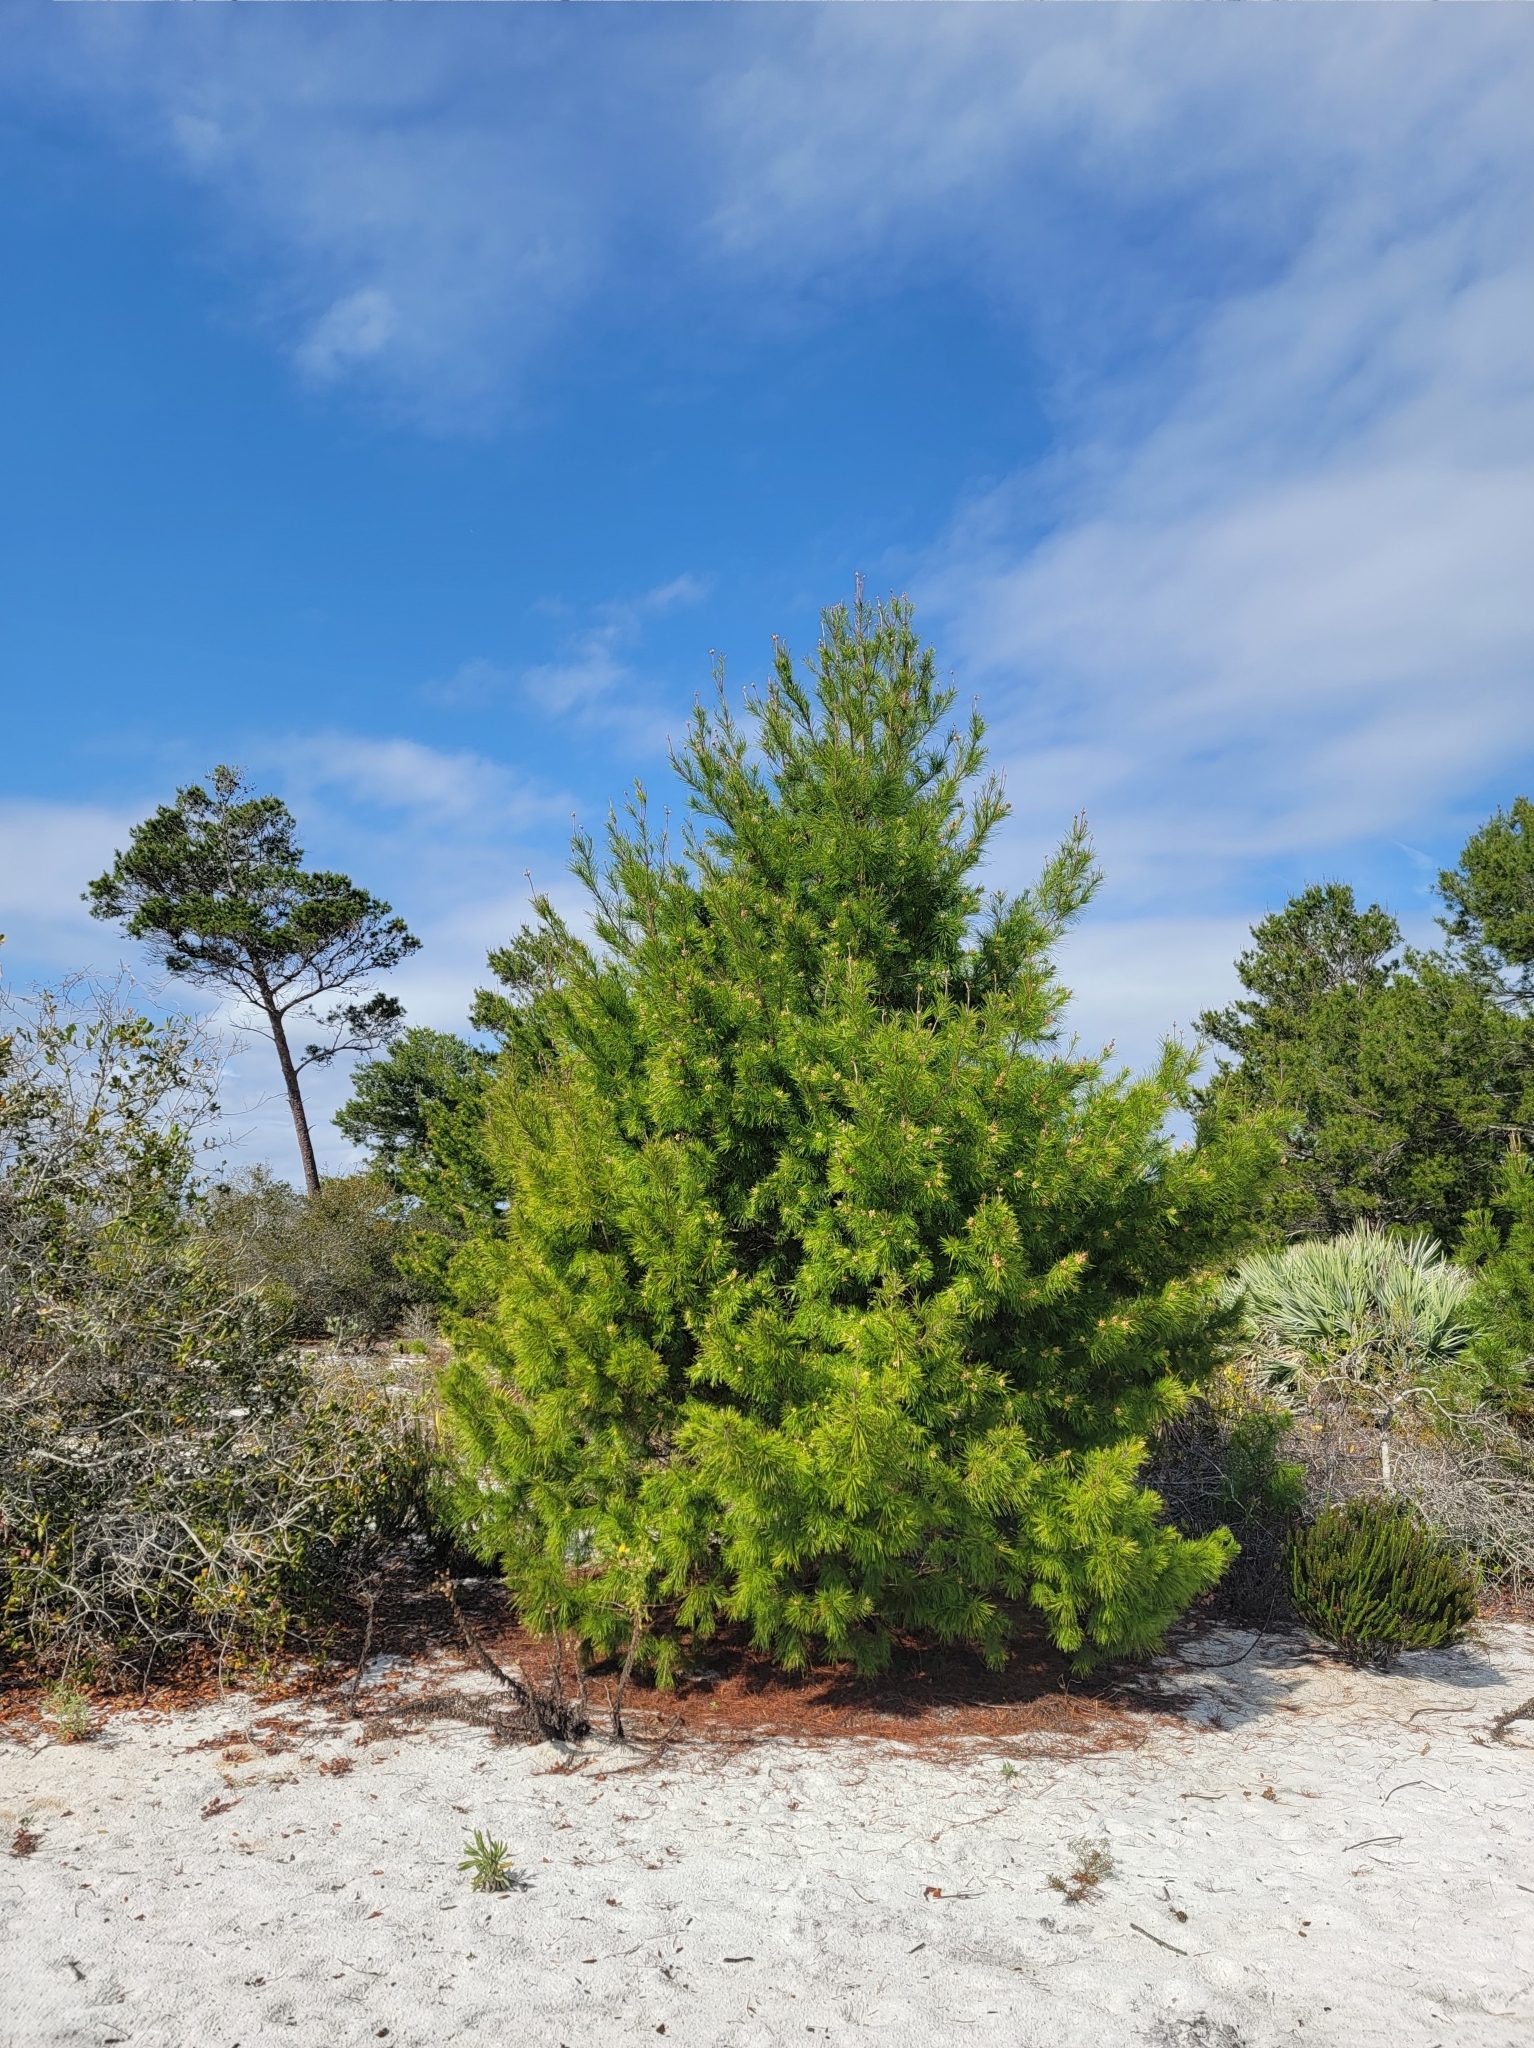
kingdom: Plantae
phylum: Tracheophyta
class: Pinopsida
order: Pinales
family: Pinaceae
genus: Pinus
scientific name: Pinus clausa
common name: Sand pine
